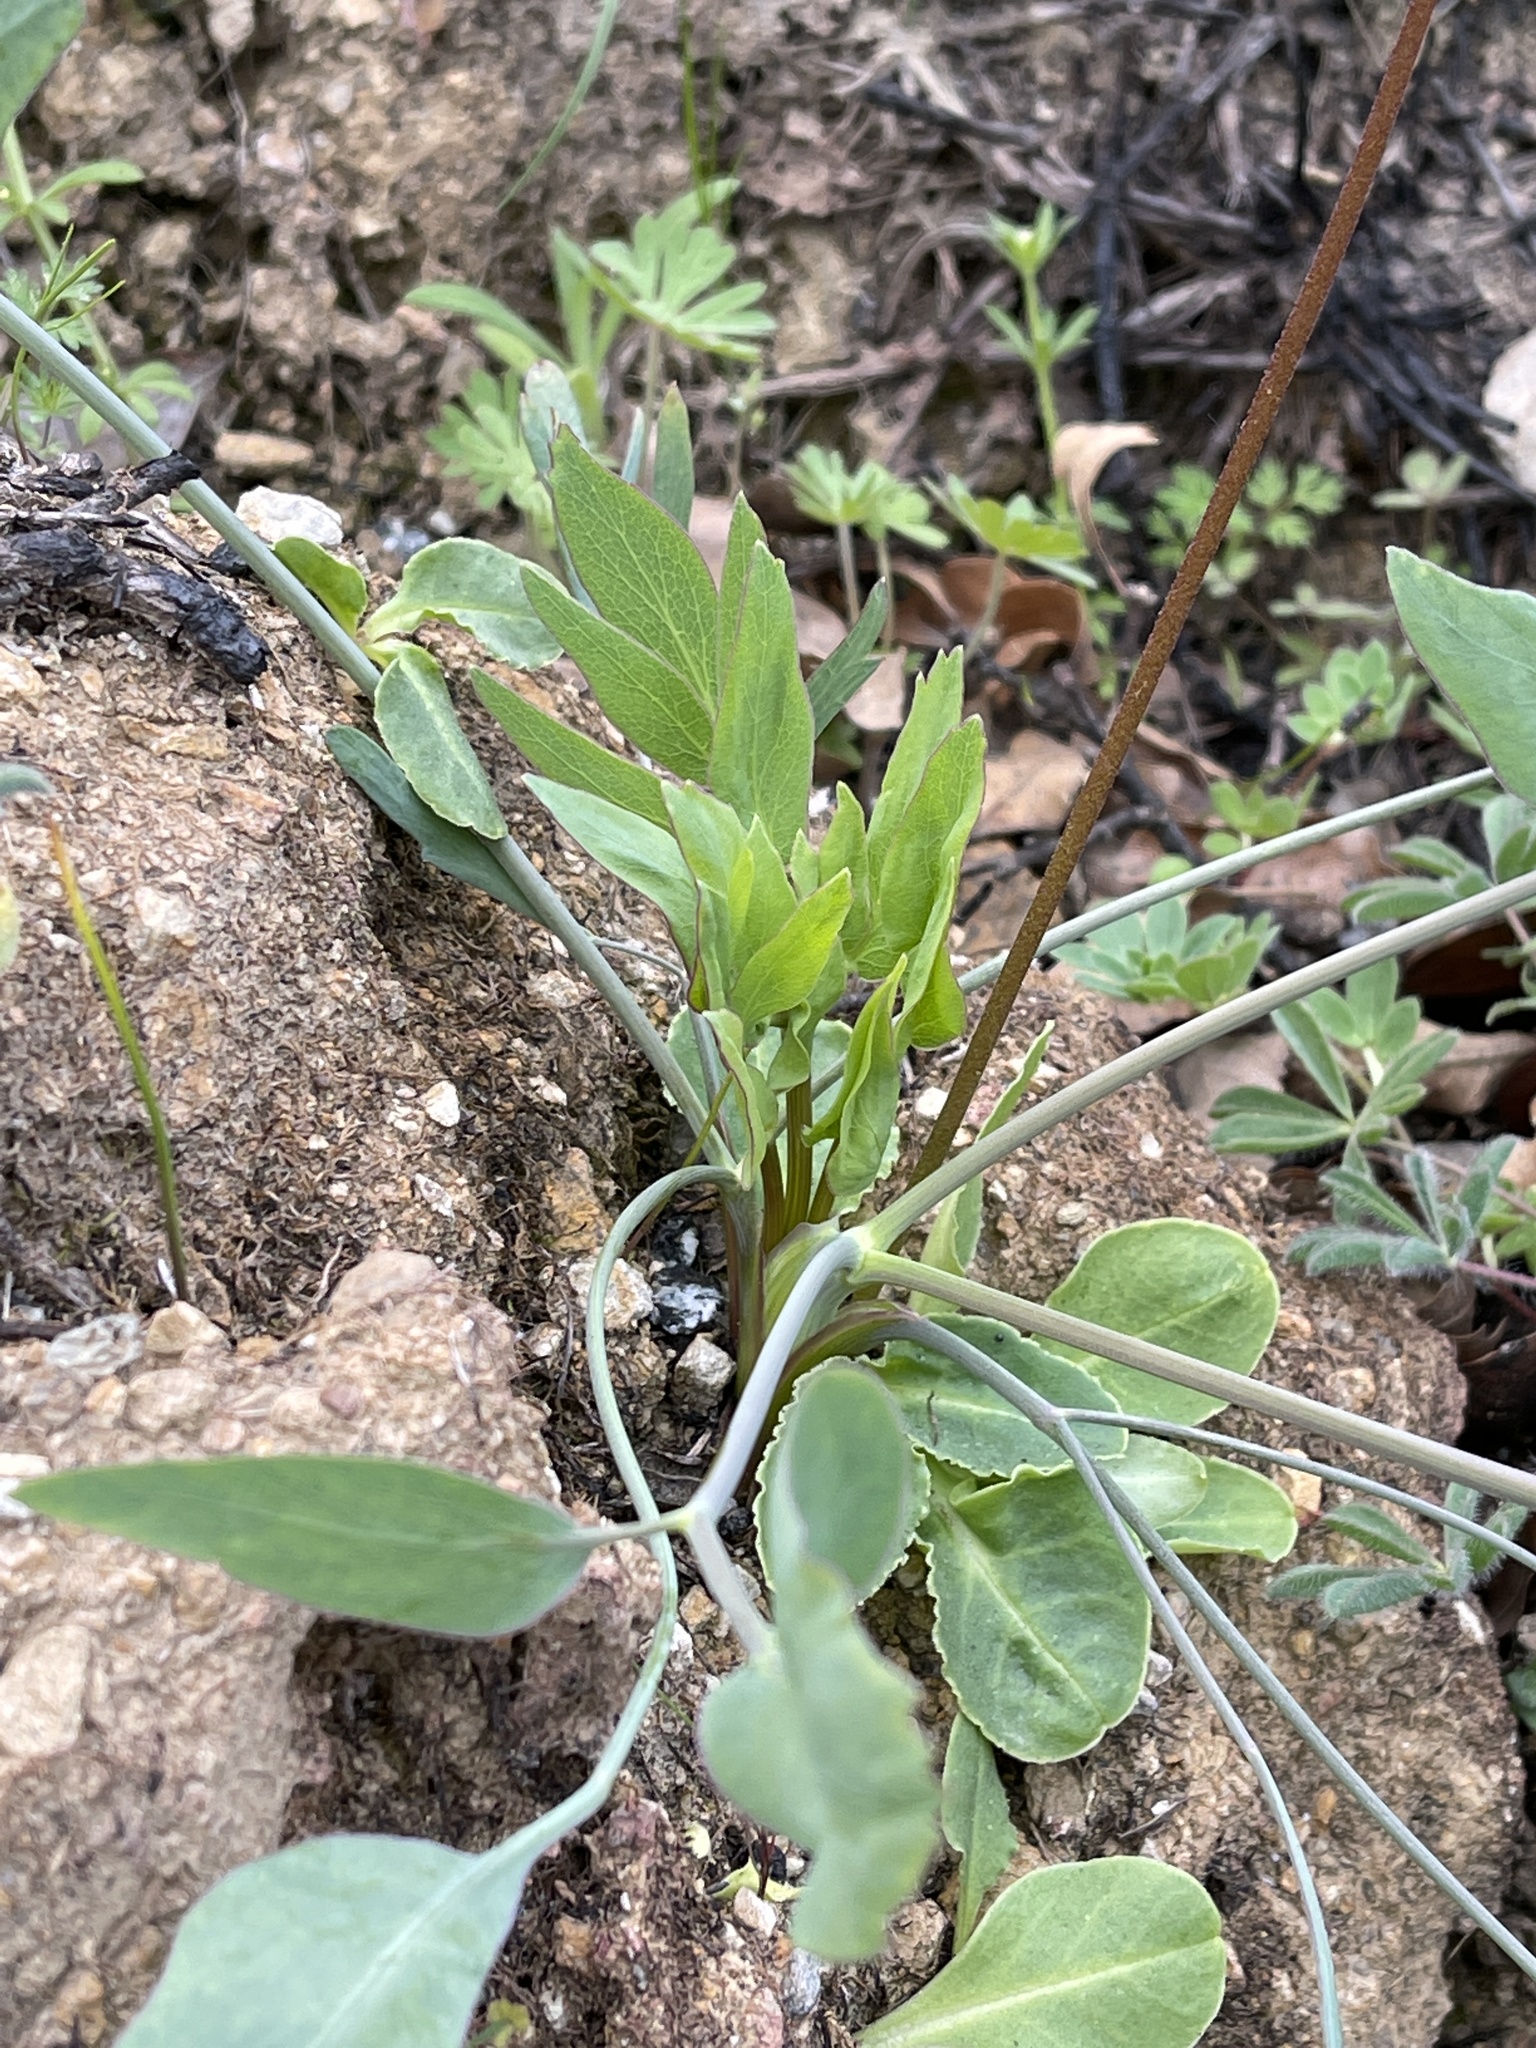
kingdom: Plantae
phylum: Tracheophyta
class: Magnoliopsida
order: Apiales
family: Apiaceae
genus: Lomatium
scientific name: Lomatium nudicaule
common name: Pestle lomatium
